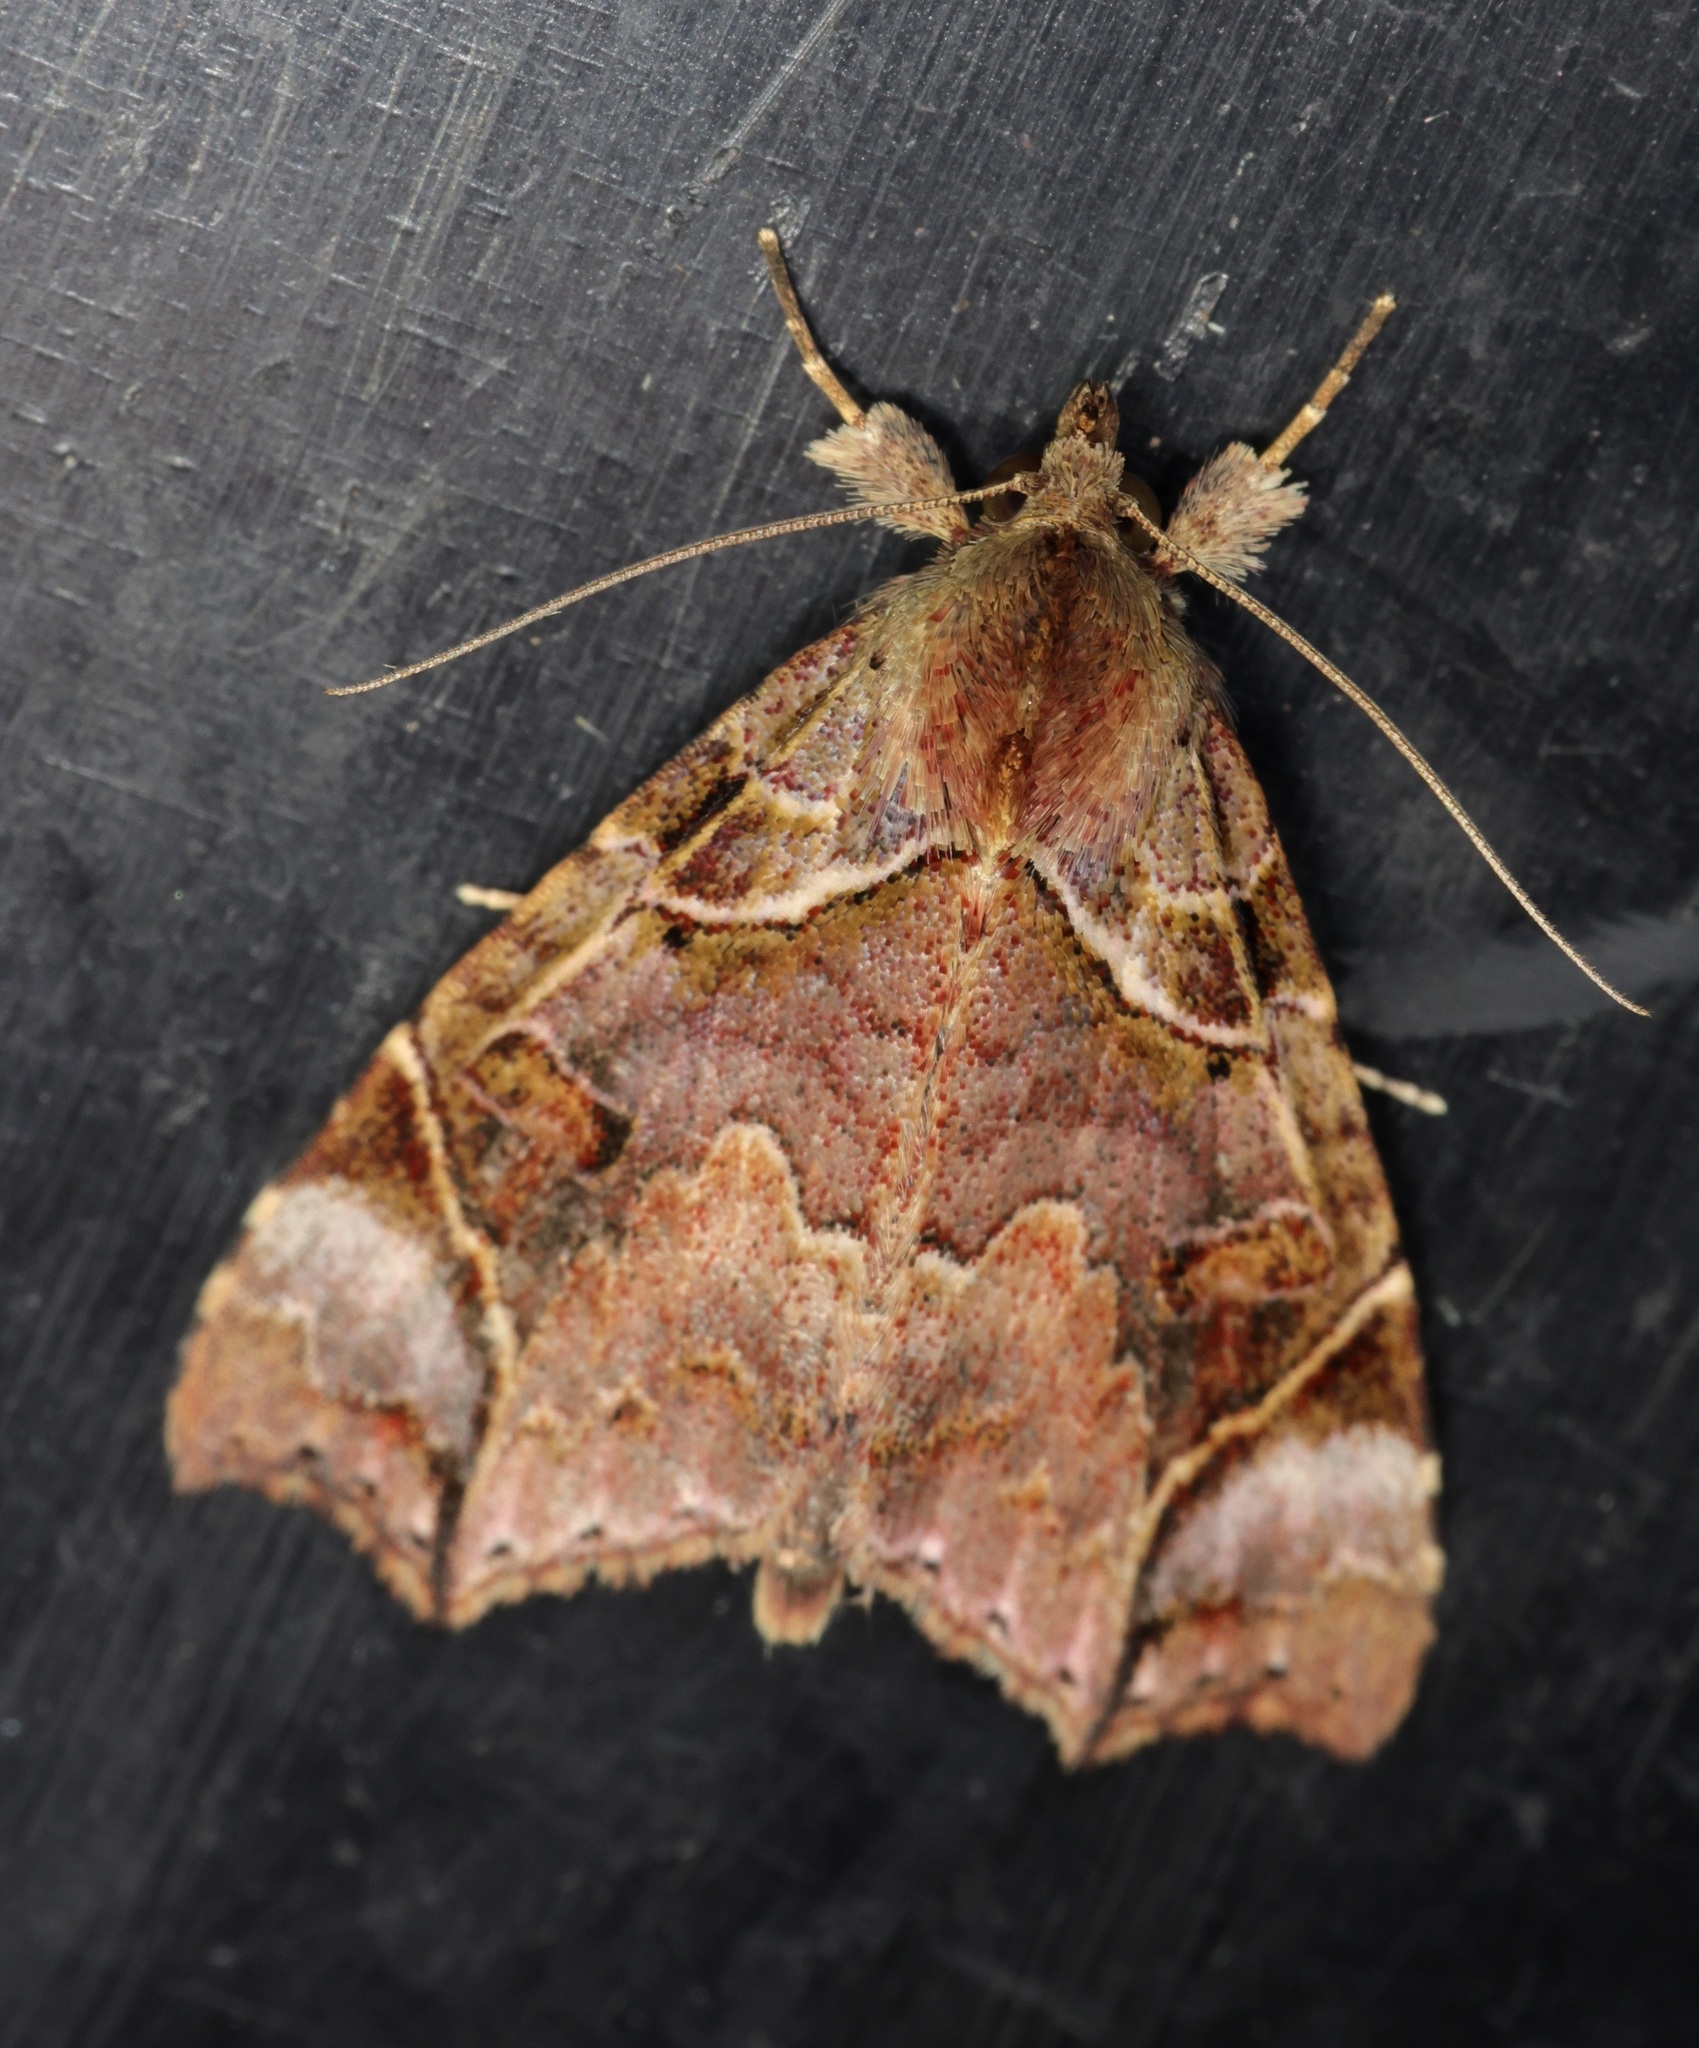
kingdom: Animalia
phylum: Arthropoda
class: Insecta
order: Lepidoptera
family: Erebidae
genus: Parolulis
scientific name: Parolulis renalis
